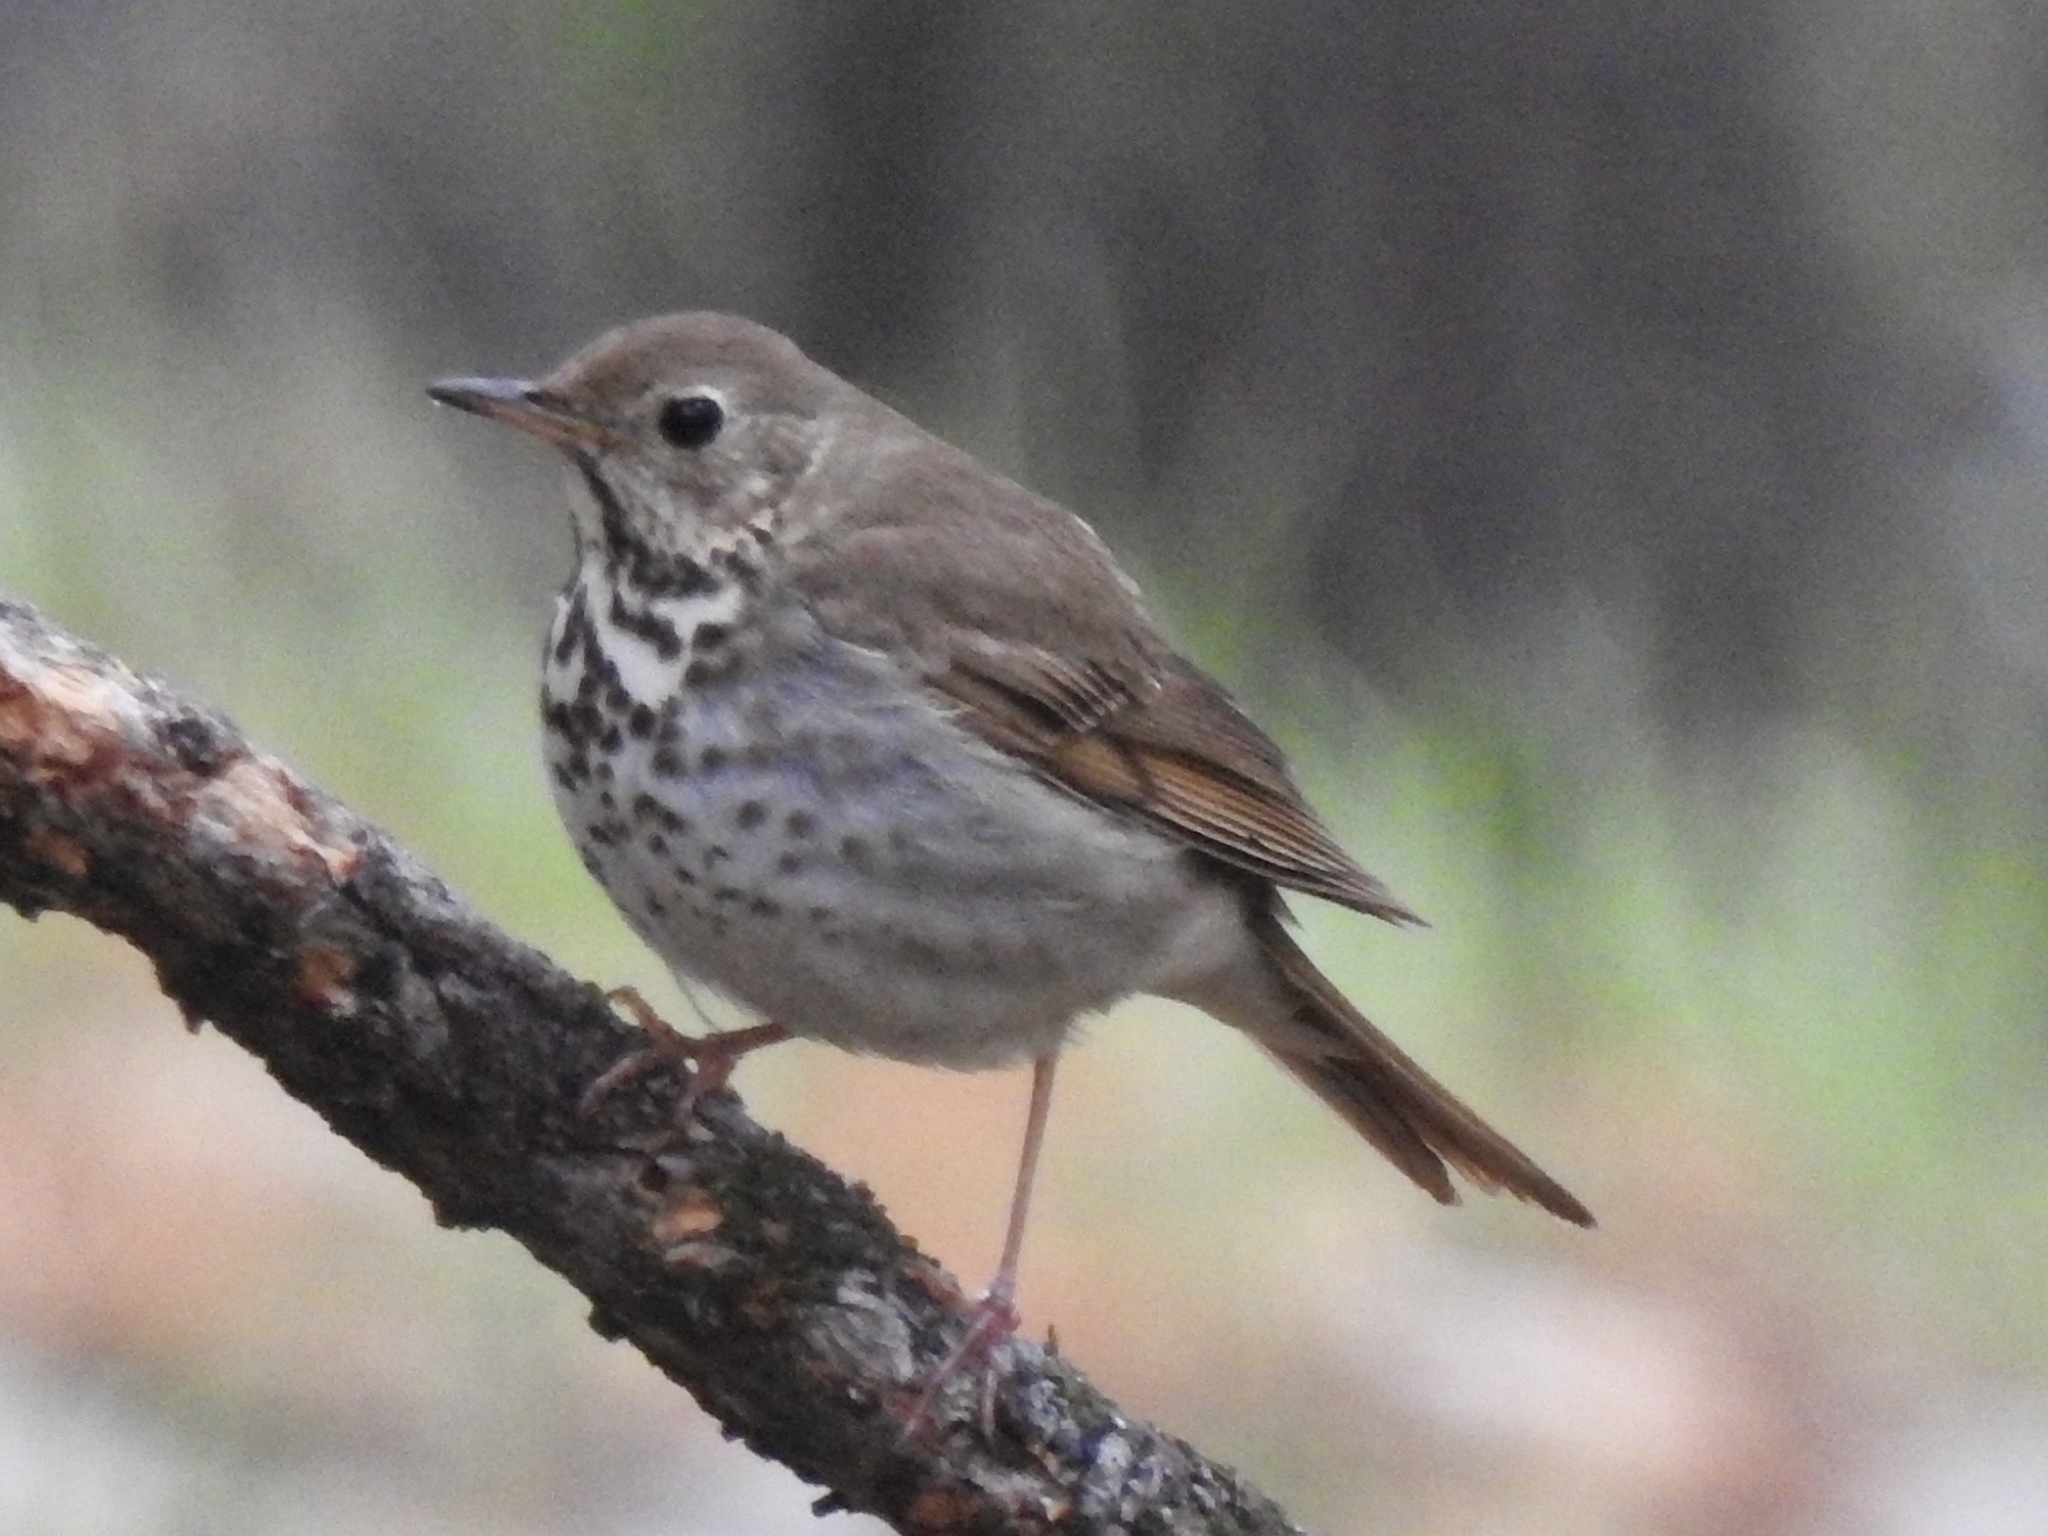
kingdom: Animalia
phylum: Chordata
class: Aves
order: Passeriformes
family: Turdidae
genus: Catharus
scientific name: Catharus guttatus
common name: Hermit thrush
